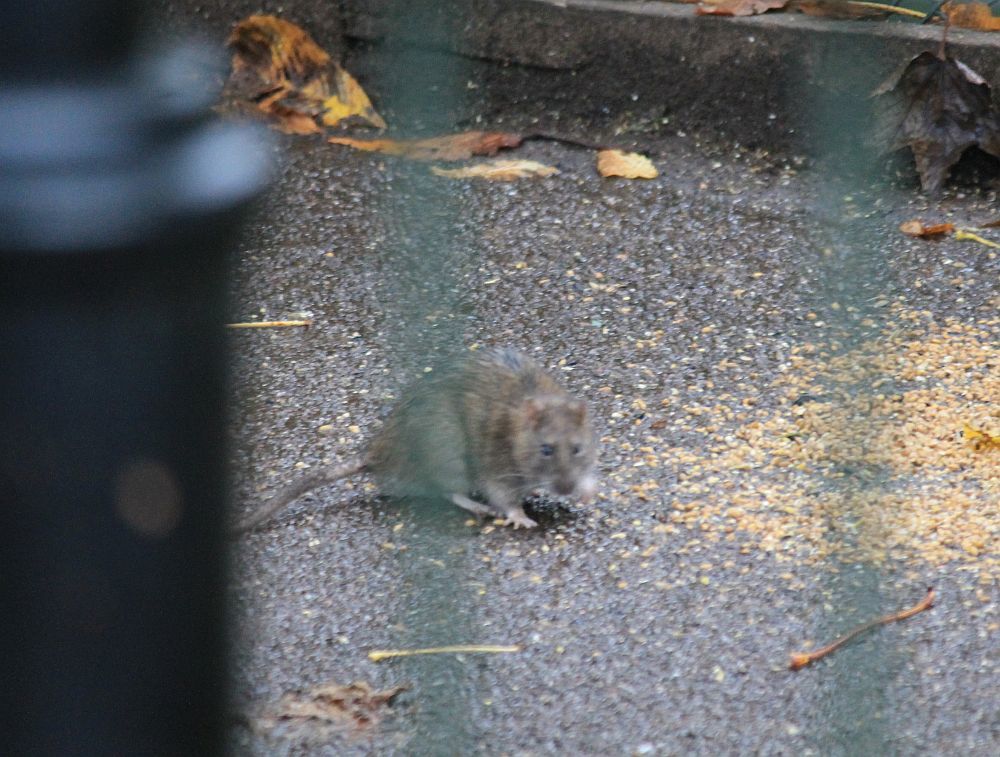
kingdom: Animalia
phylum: Chordata
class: Mammalia
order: Rodentia
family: Muridae
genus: Rattus
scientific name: Rattus norvegicus
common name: Brown rat
